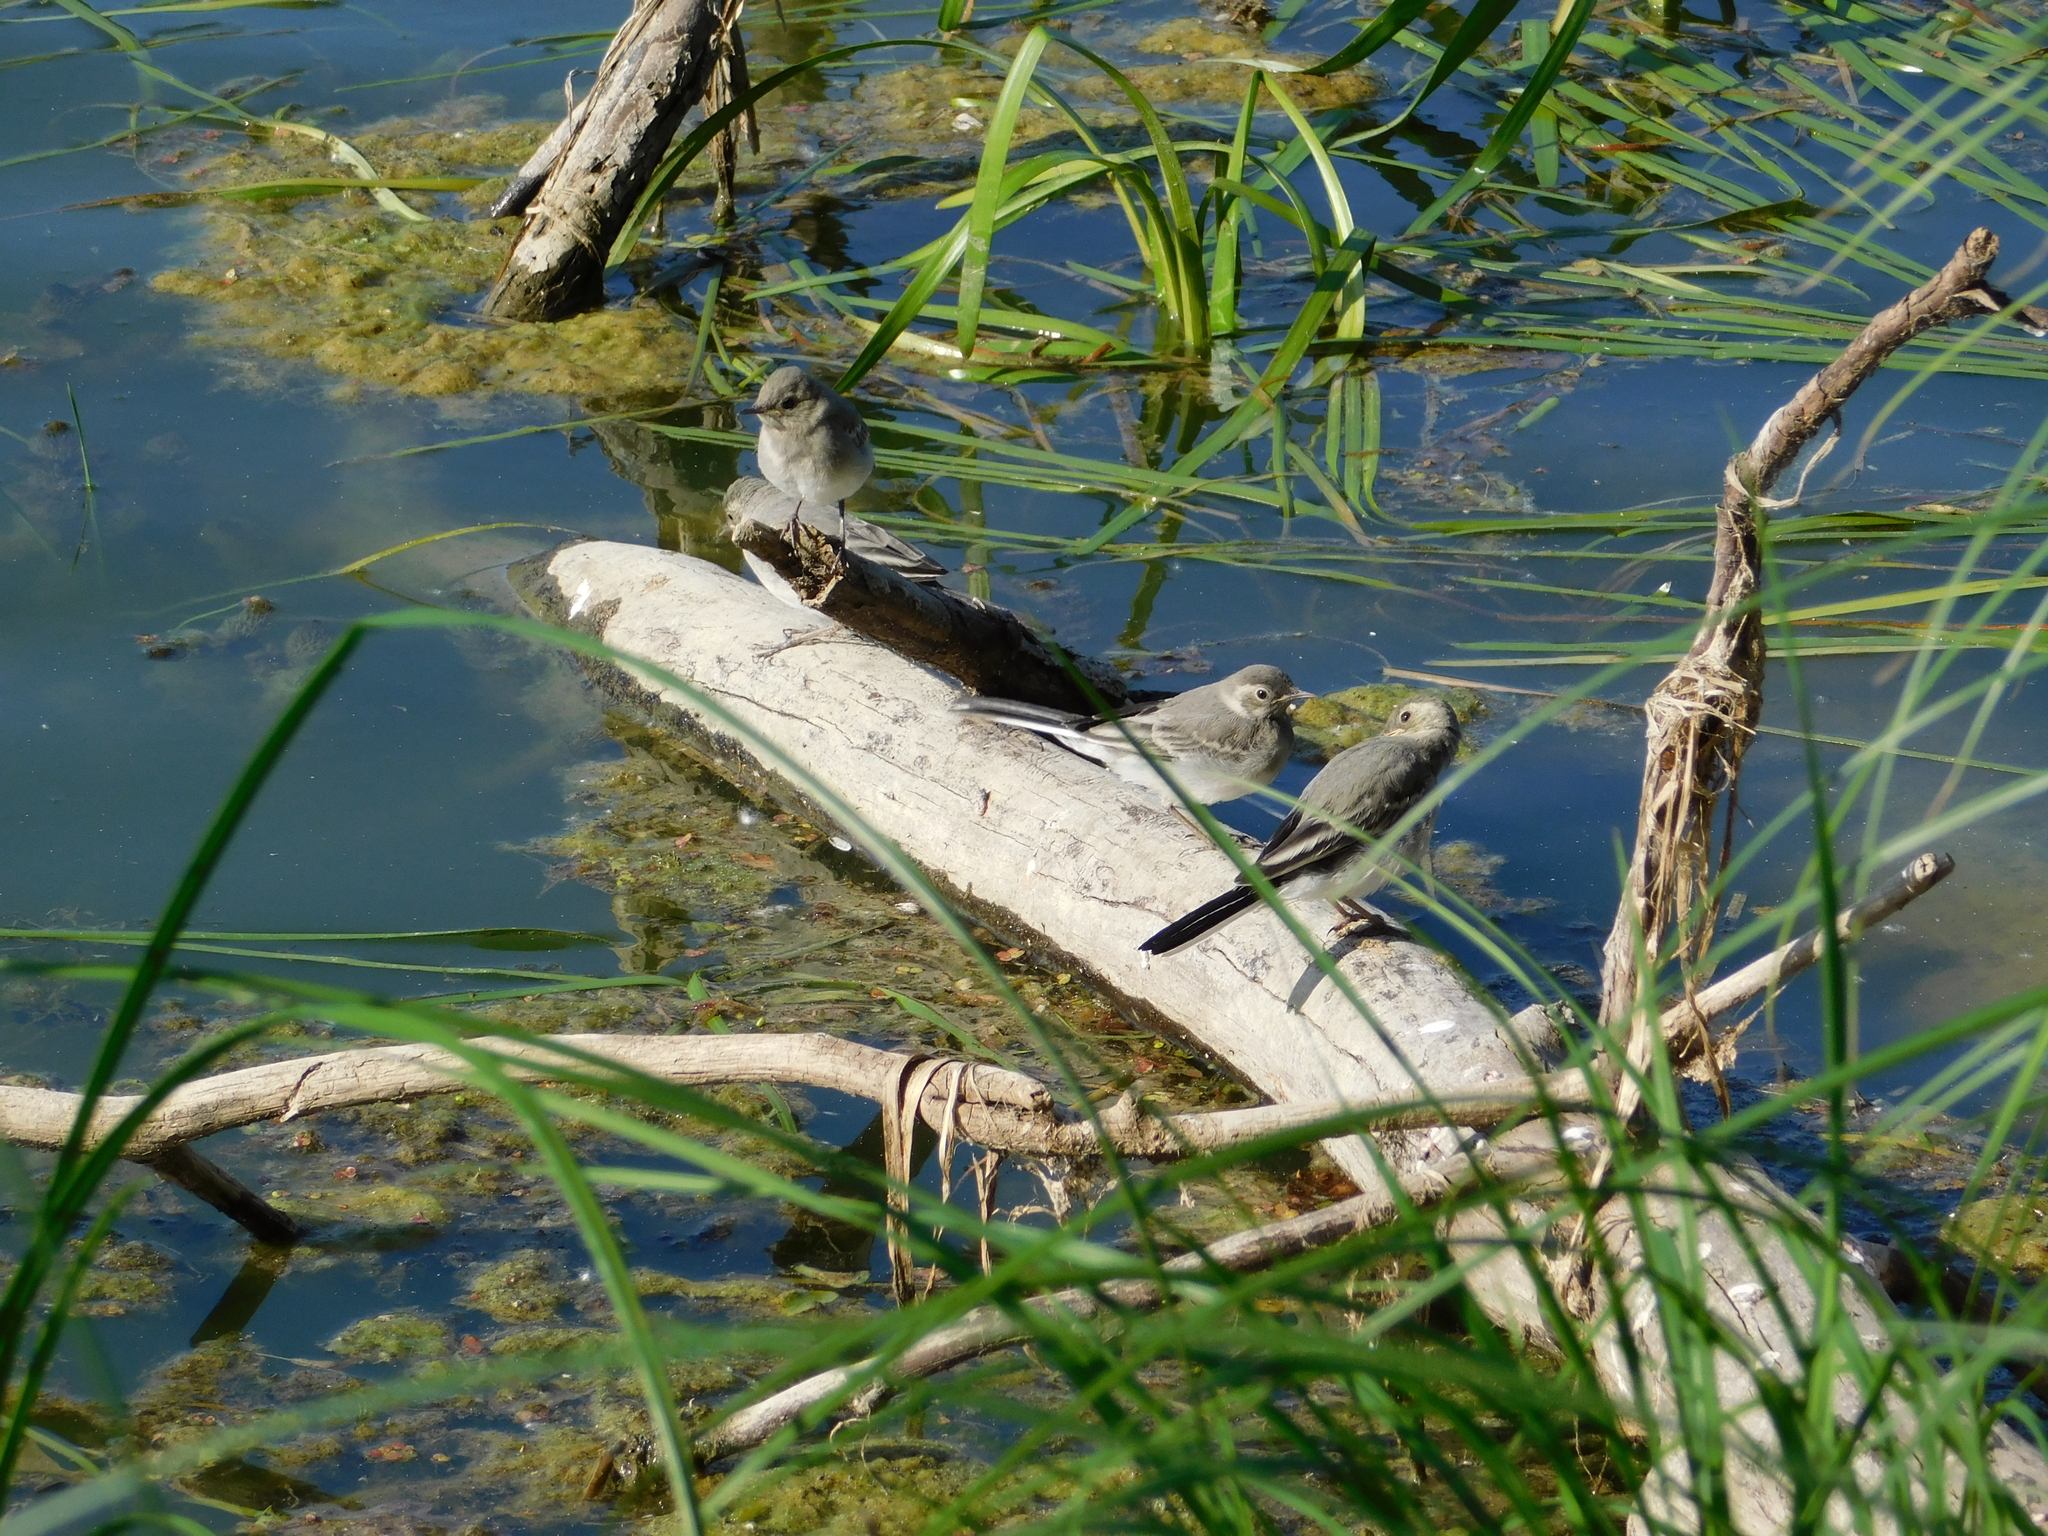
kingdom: Animalia
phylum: Chordata
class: Aves
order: Passeriformes
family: Motacillidae
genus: Motacilla
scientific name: Motacilla alba
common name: White wagtail
